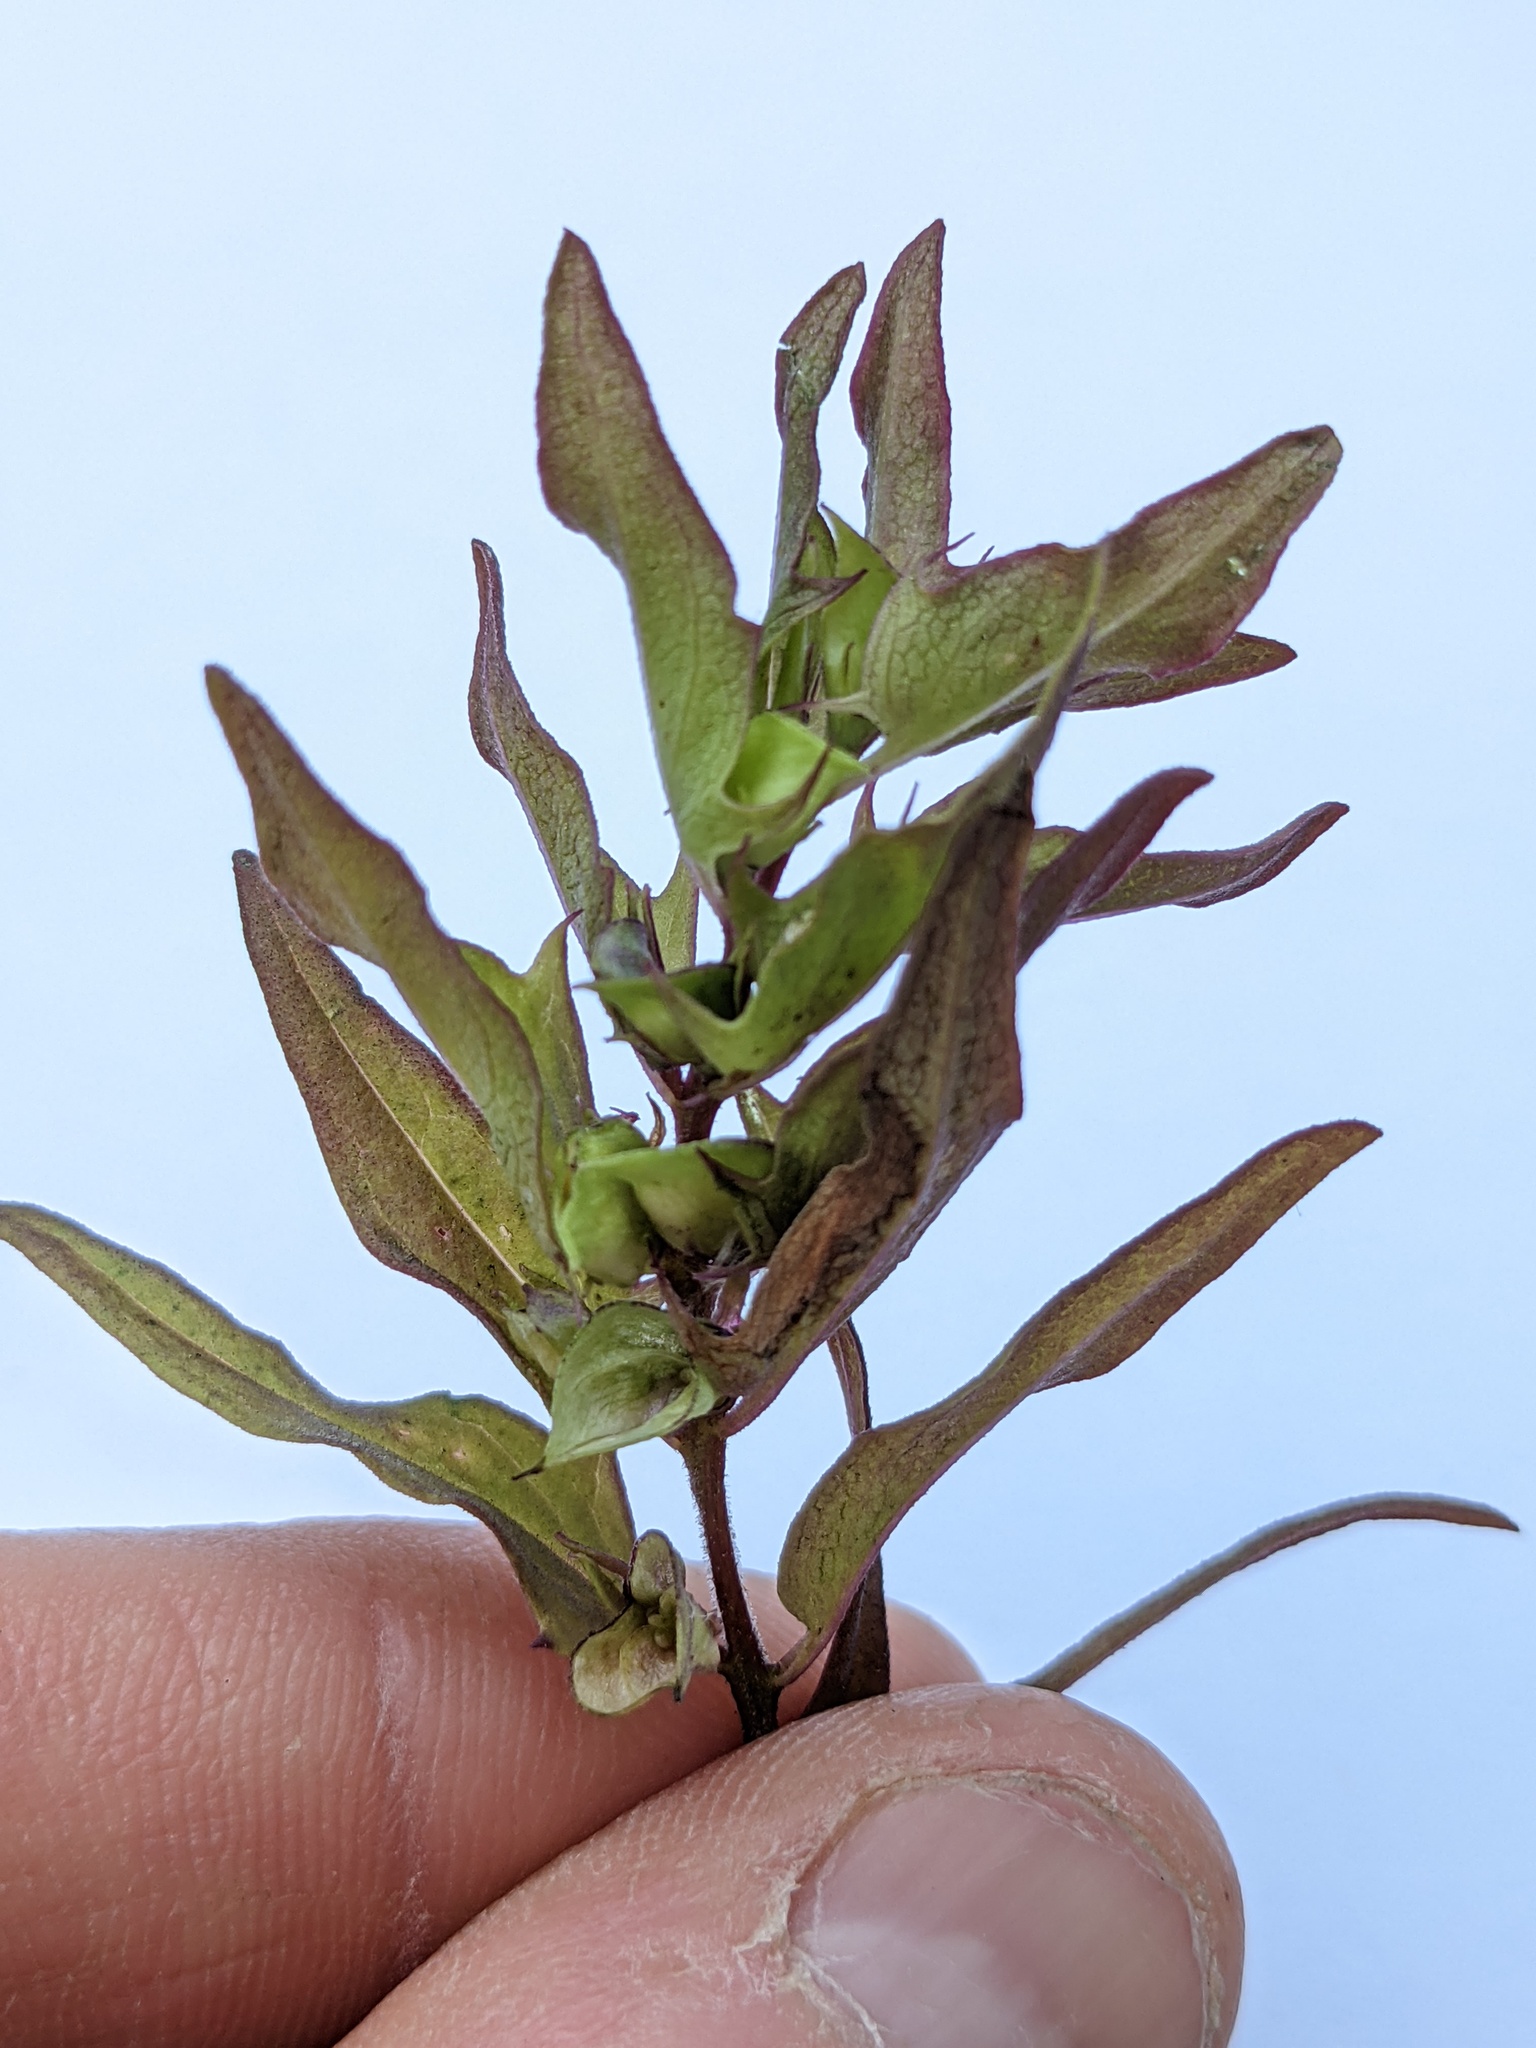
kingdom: Plantae
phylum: Tracheophyta
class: Magnoliopsida
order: Lamiales
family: Orobanchaceae
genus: Melampyrum
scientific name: Melampyrum lineare
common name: American cow-wheat
